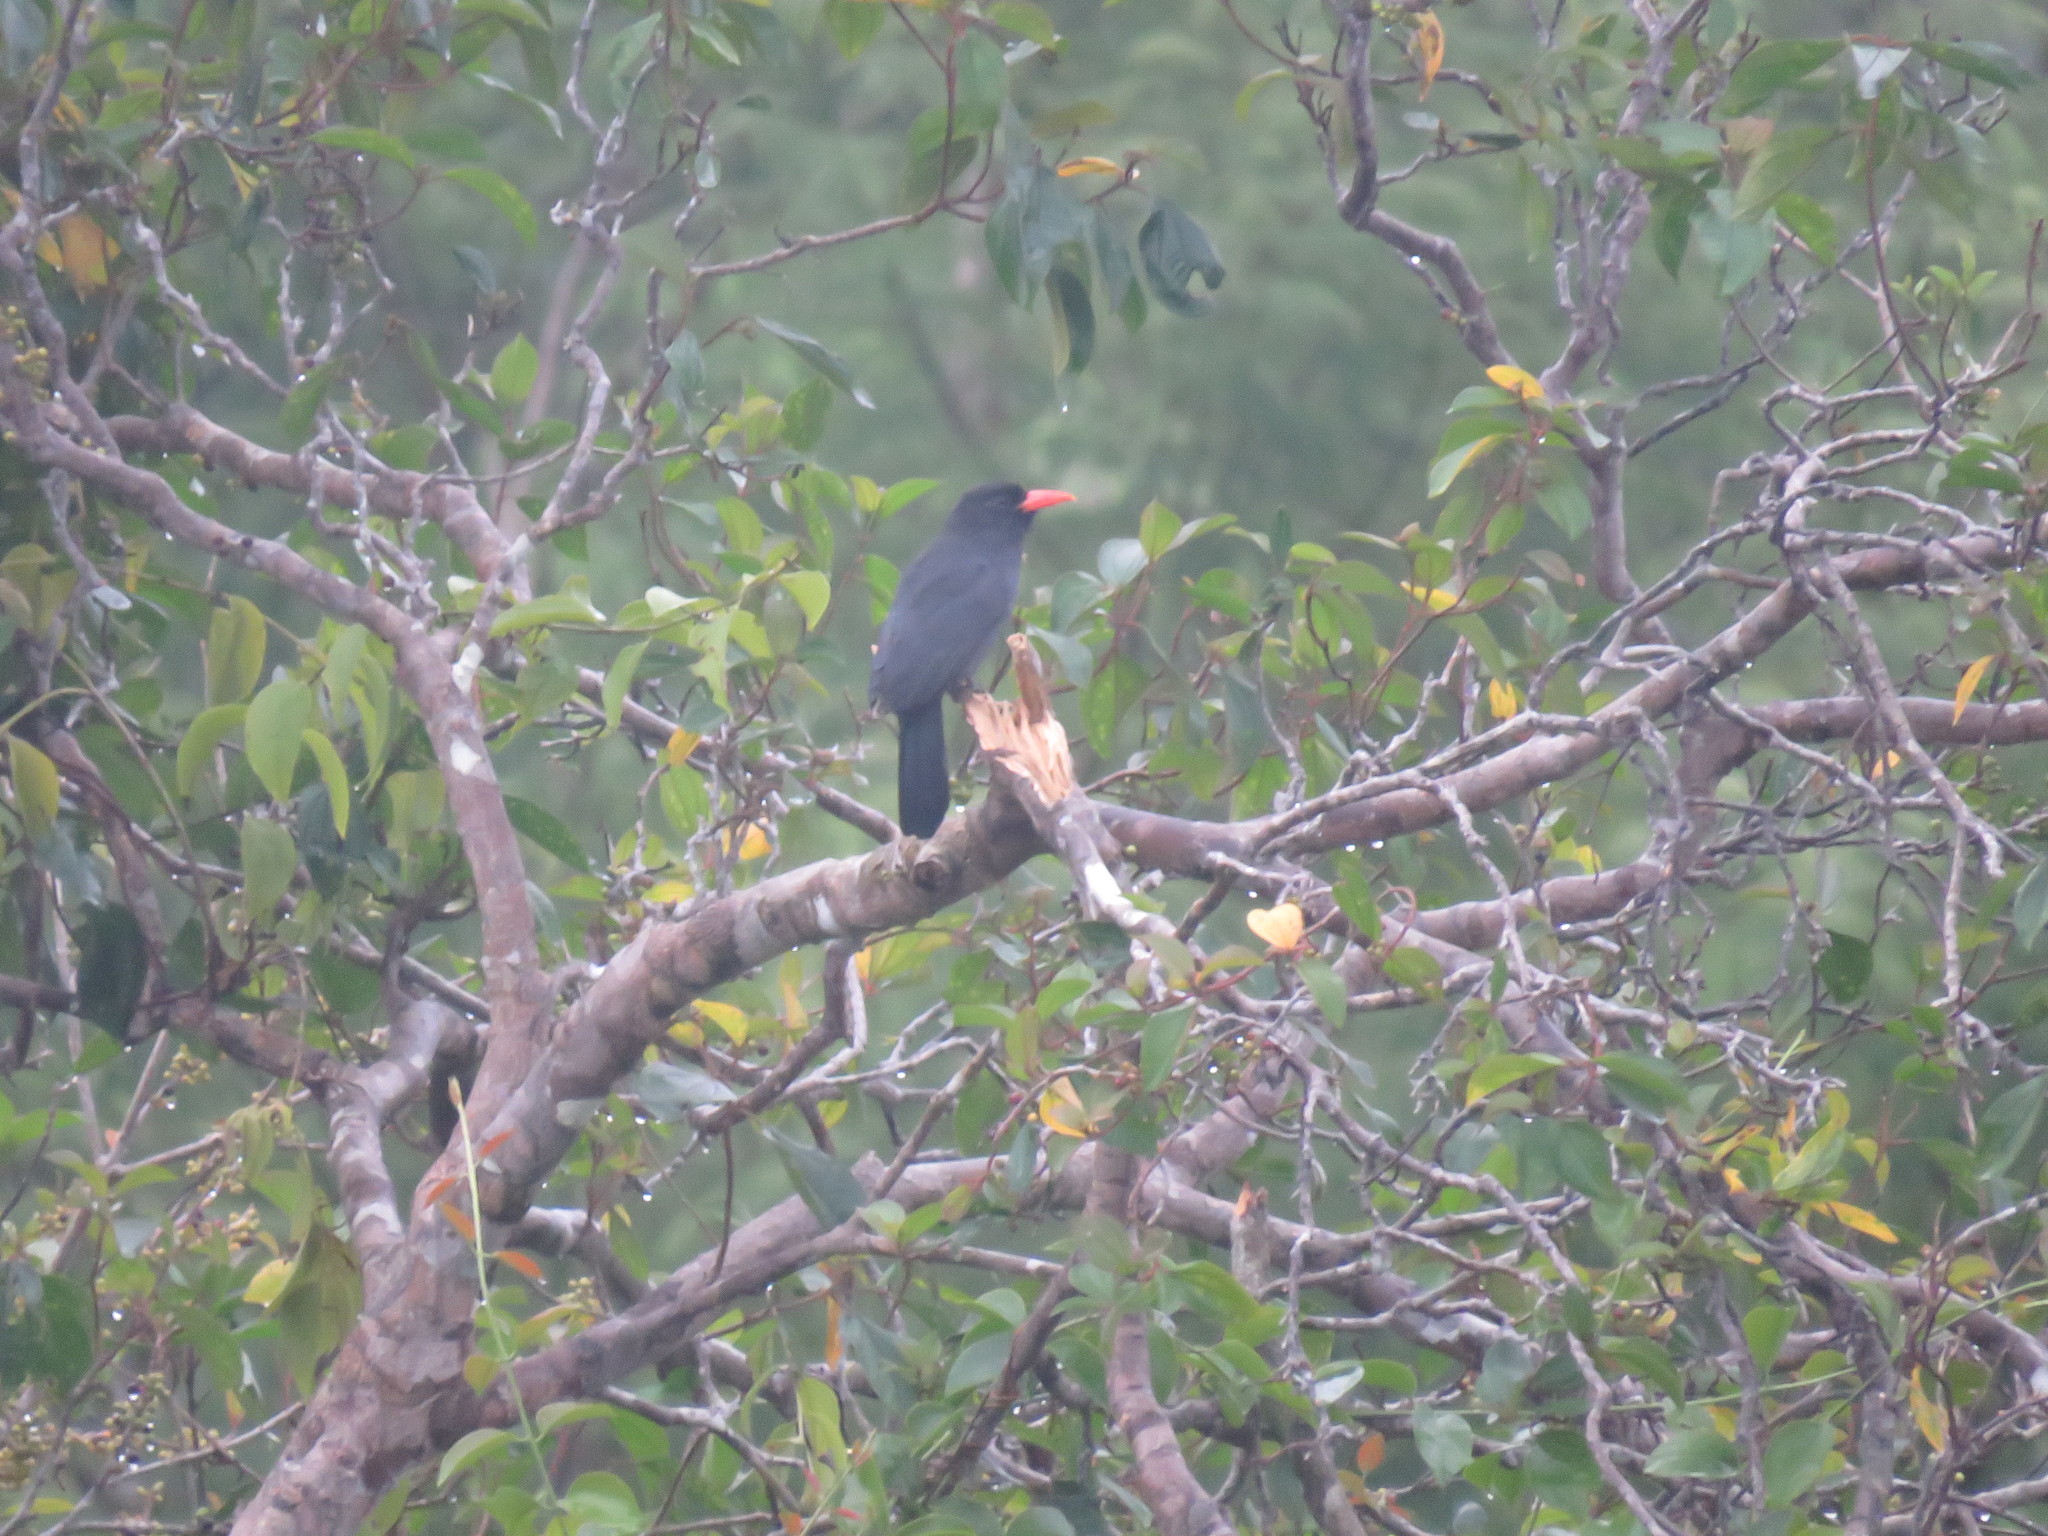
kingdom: Animalia
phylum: Chordata
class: Aves
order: Piciformes
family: Bucconidae
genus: Monasa
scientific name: Monasa nigrifrons
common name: Black-fronted nunbird
